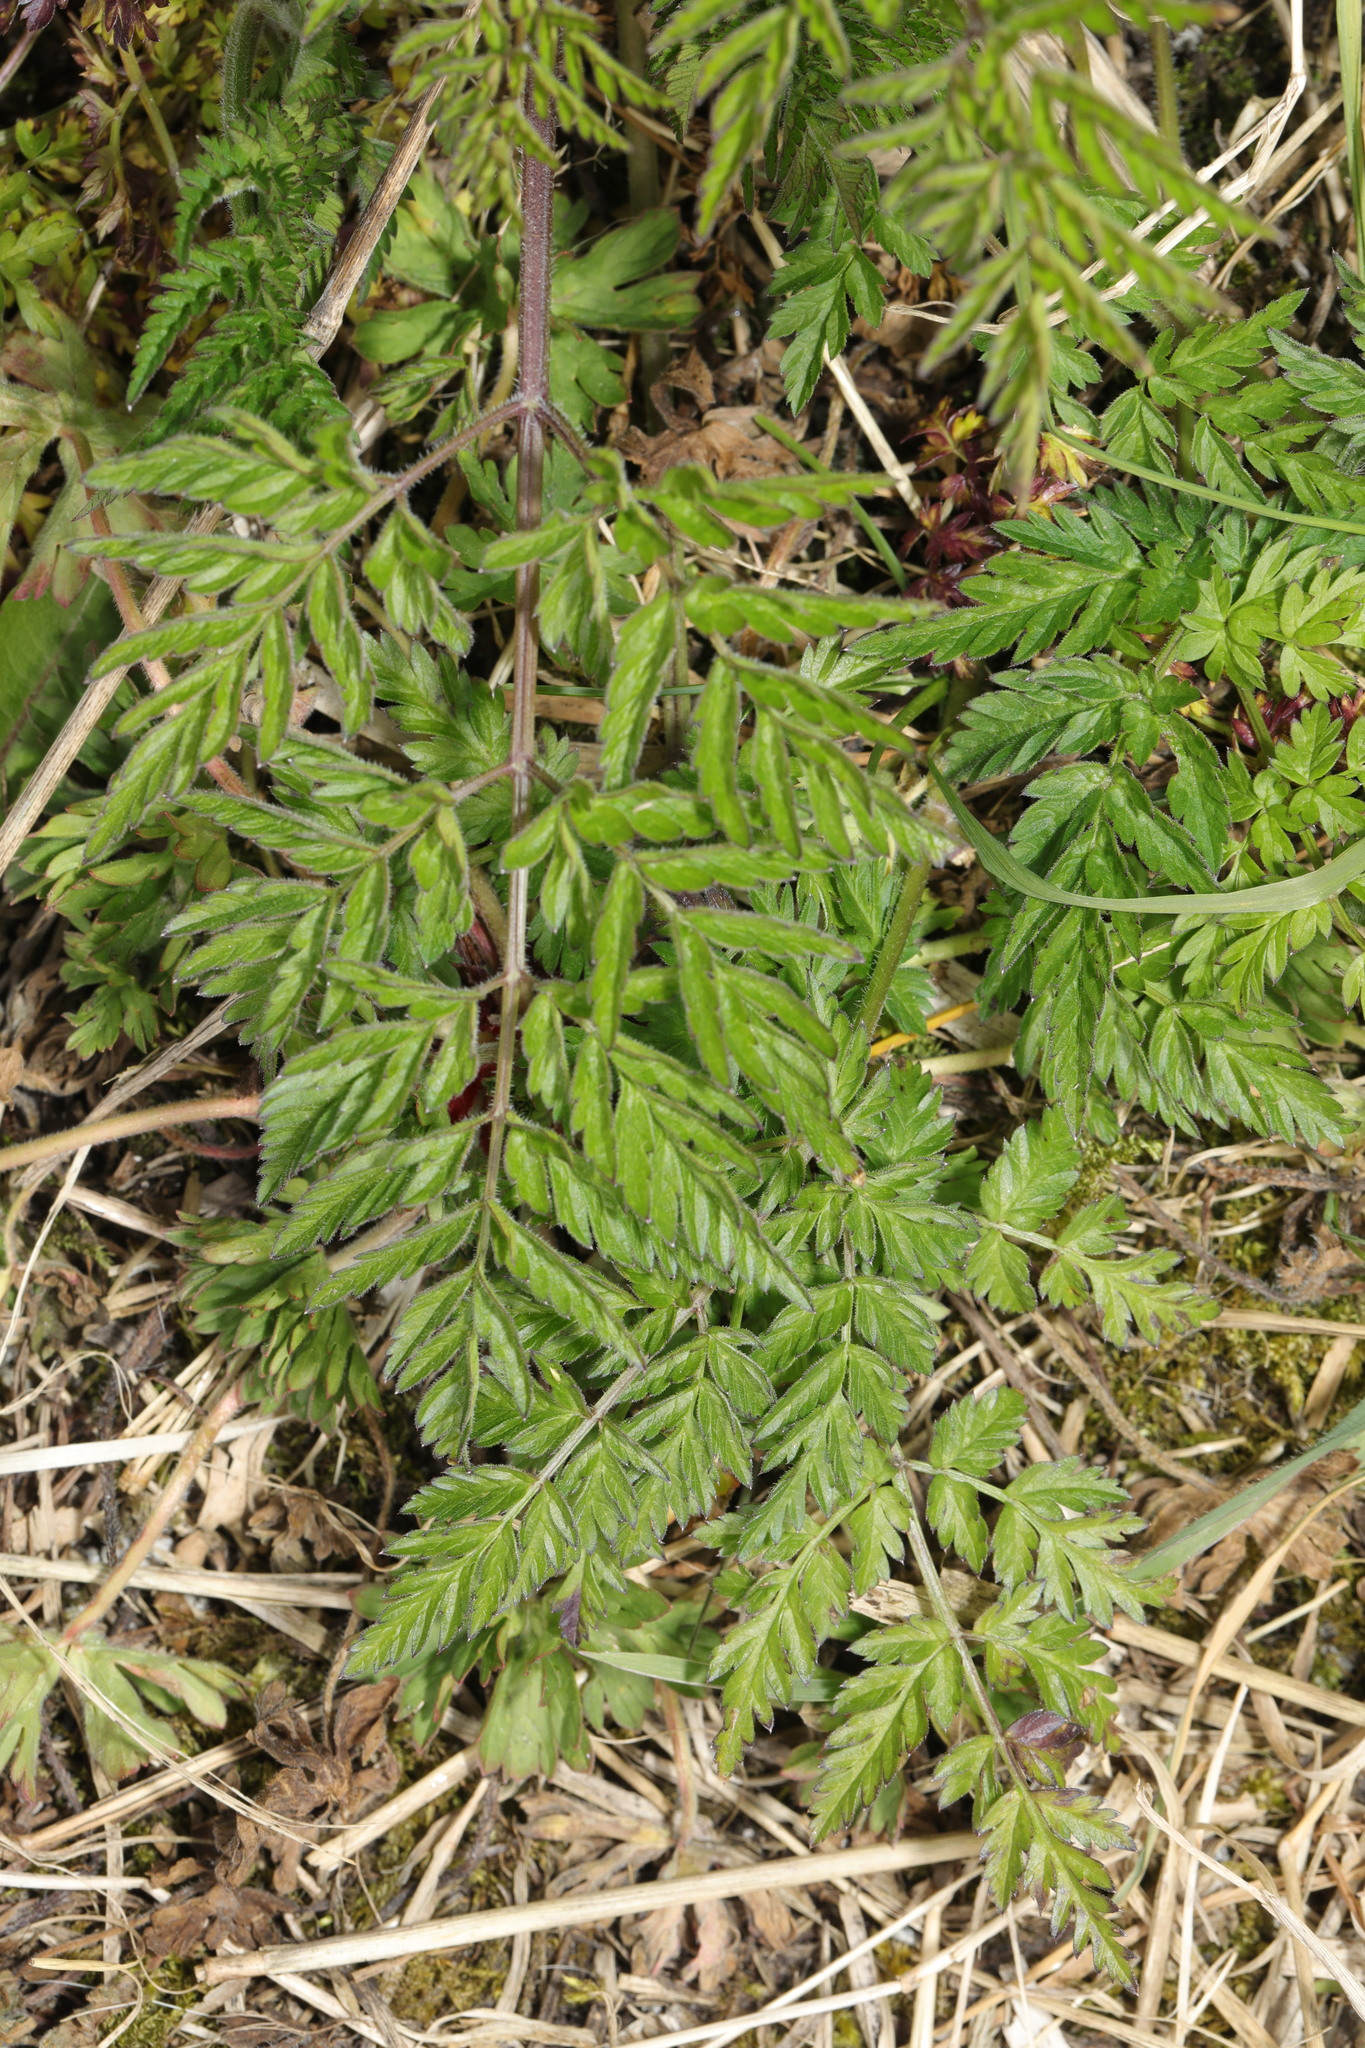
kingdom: Plantae
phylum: Tracheophyta
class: Magnoliopsida
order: Apiales
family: Apiaceae
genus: Anthriscus
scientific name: Anthriscus sylvestris
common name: Cow parsley
